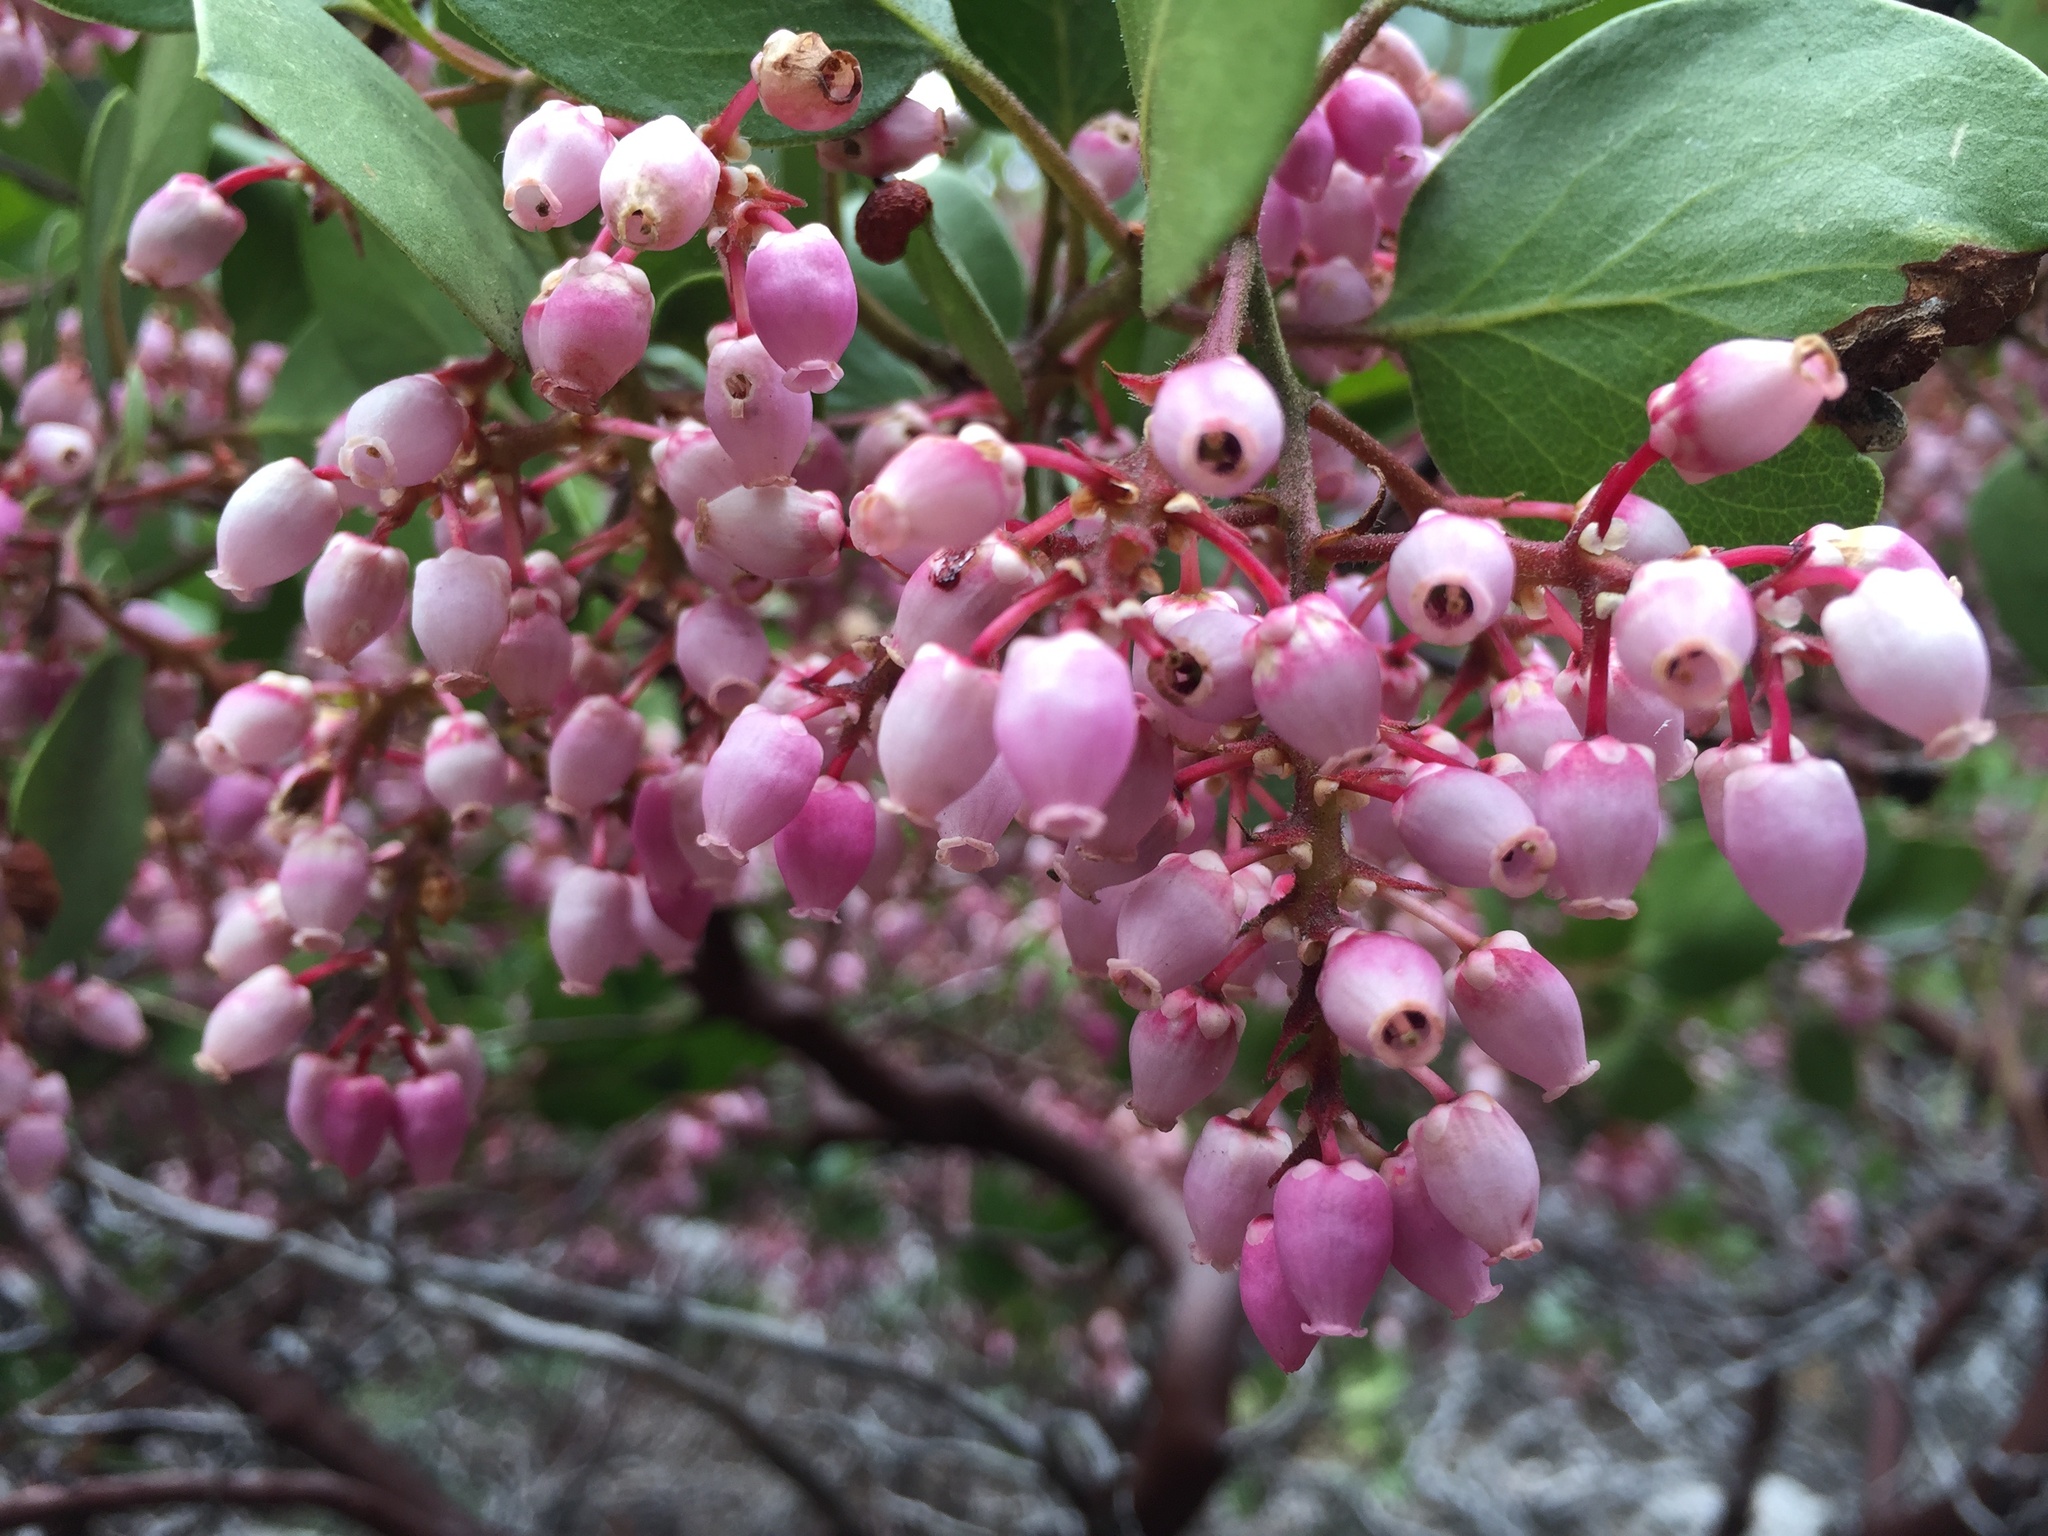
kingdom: Plantae
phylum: Tracheophyta
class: Magnoliopsida
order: Ericales
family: Ericaceae
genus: Arctostaphylos
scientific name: Arctostaphylos patula
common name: Green-leaf manzanita
